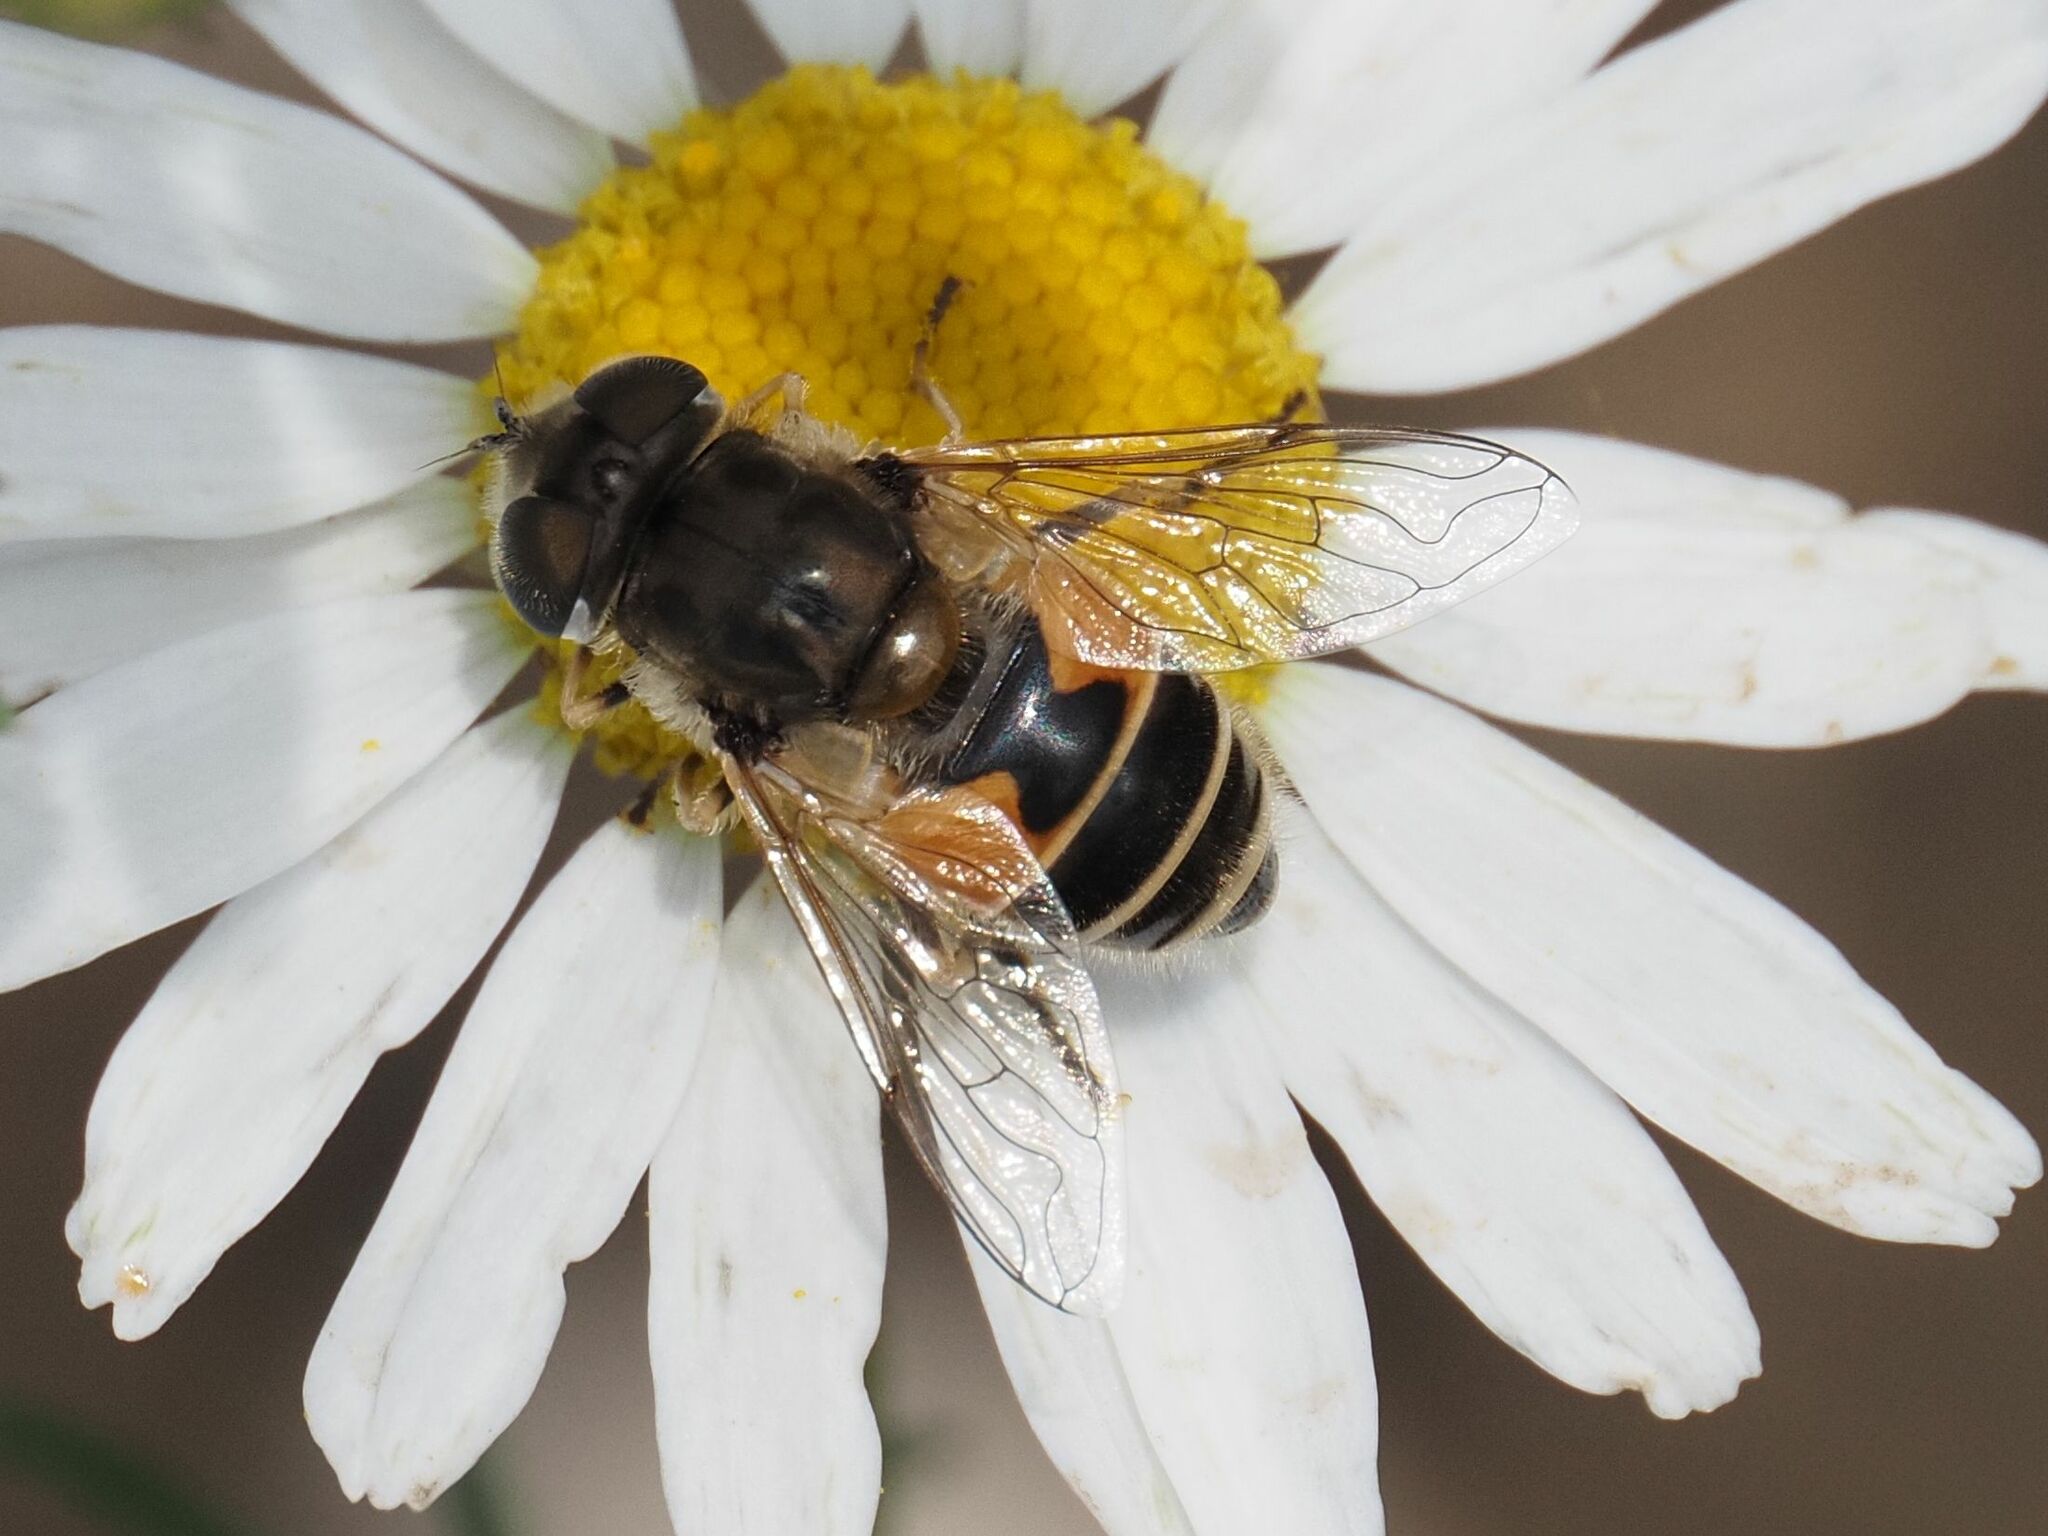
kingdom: Animalia
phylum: Arthropoda
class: Insecta
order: Diptera
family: Syrphidae
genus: Eristalis
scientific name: Eristalis arbustorum
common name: Hover fly
